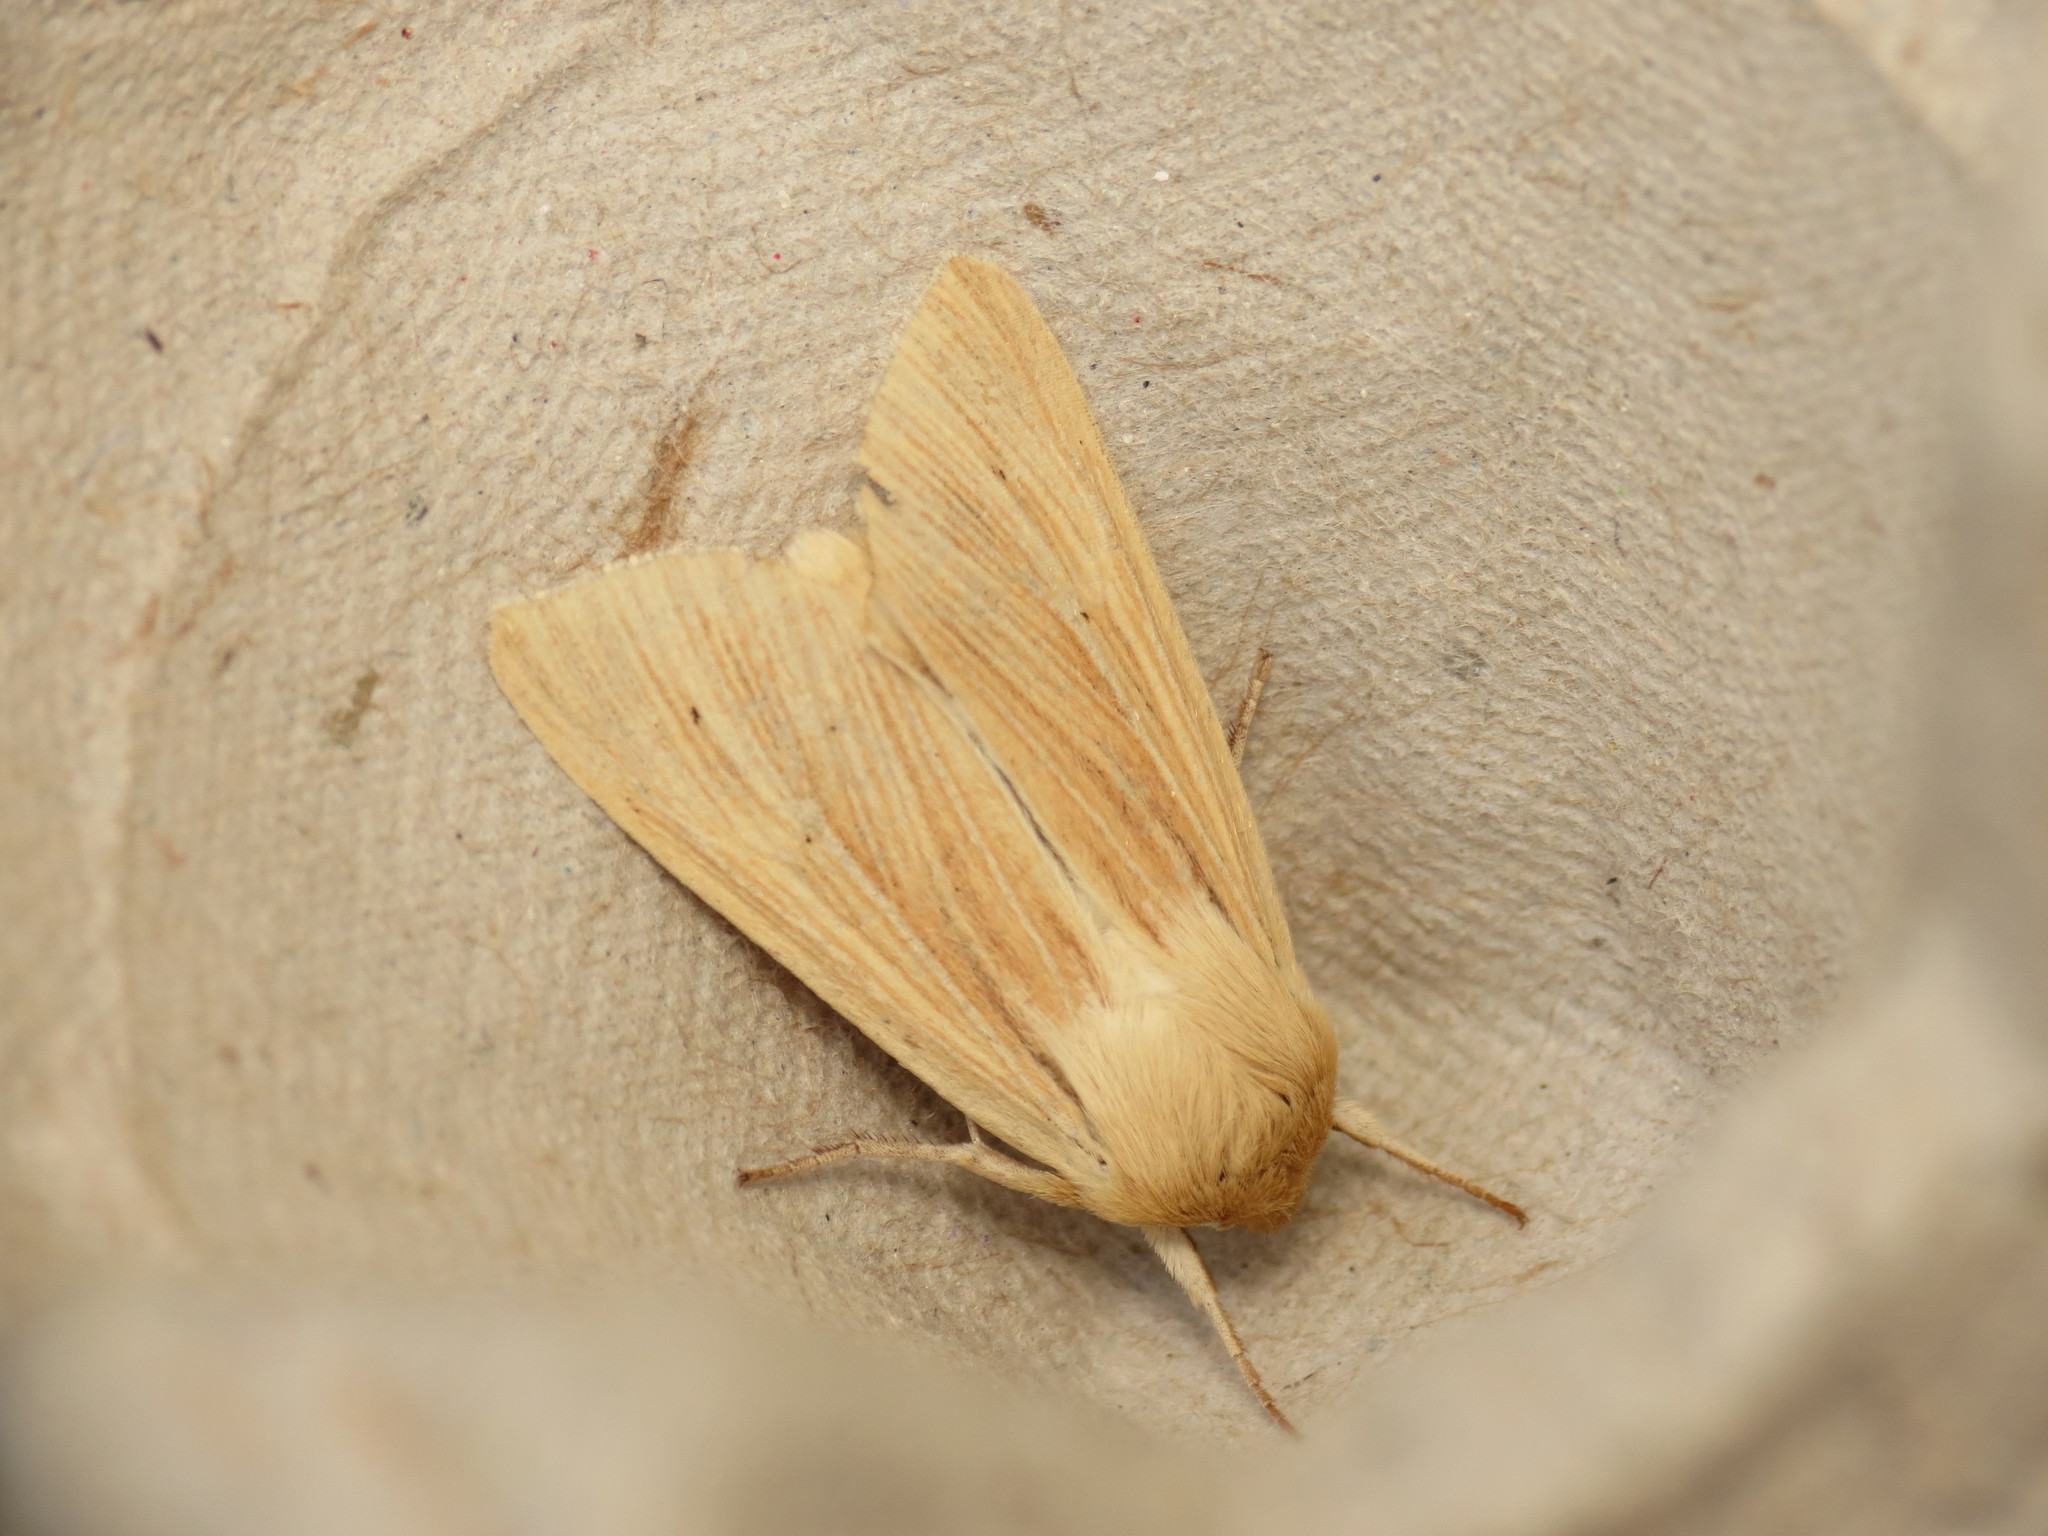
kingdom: Animalia
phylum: Arthropoda
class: Insecta
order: Lepidoptera
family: Noctuidae
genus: Mythimna
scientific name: Mythimna pallens
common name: Common wainscot
